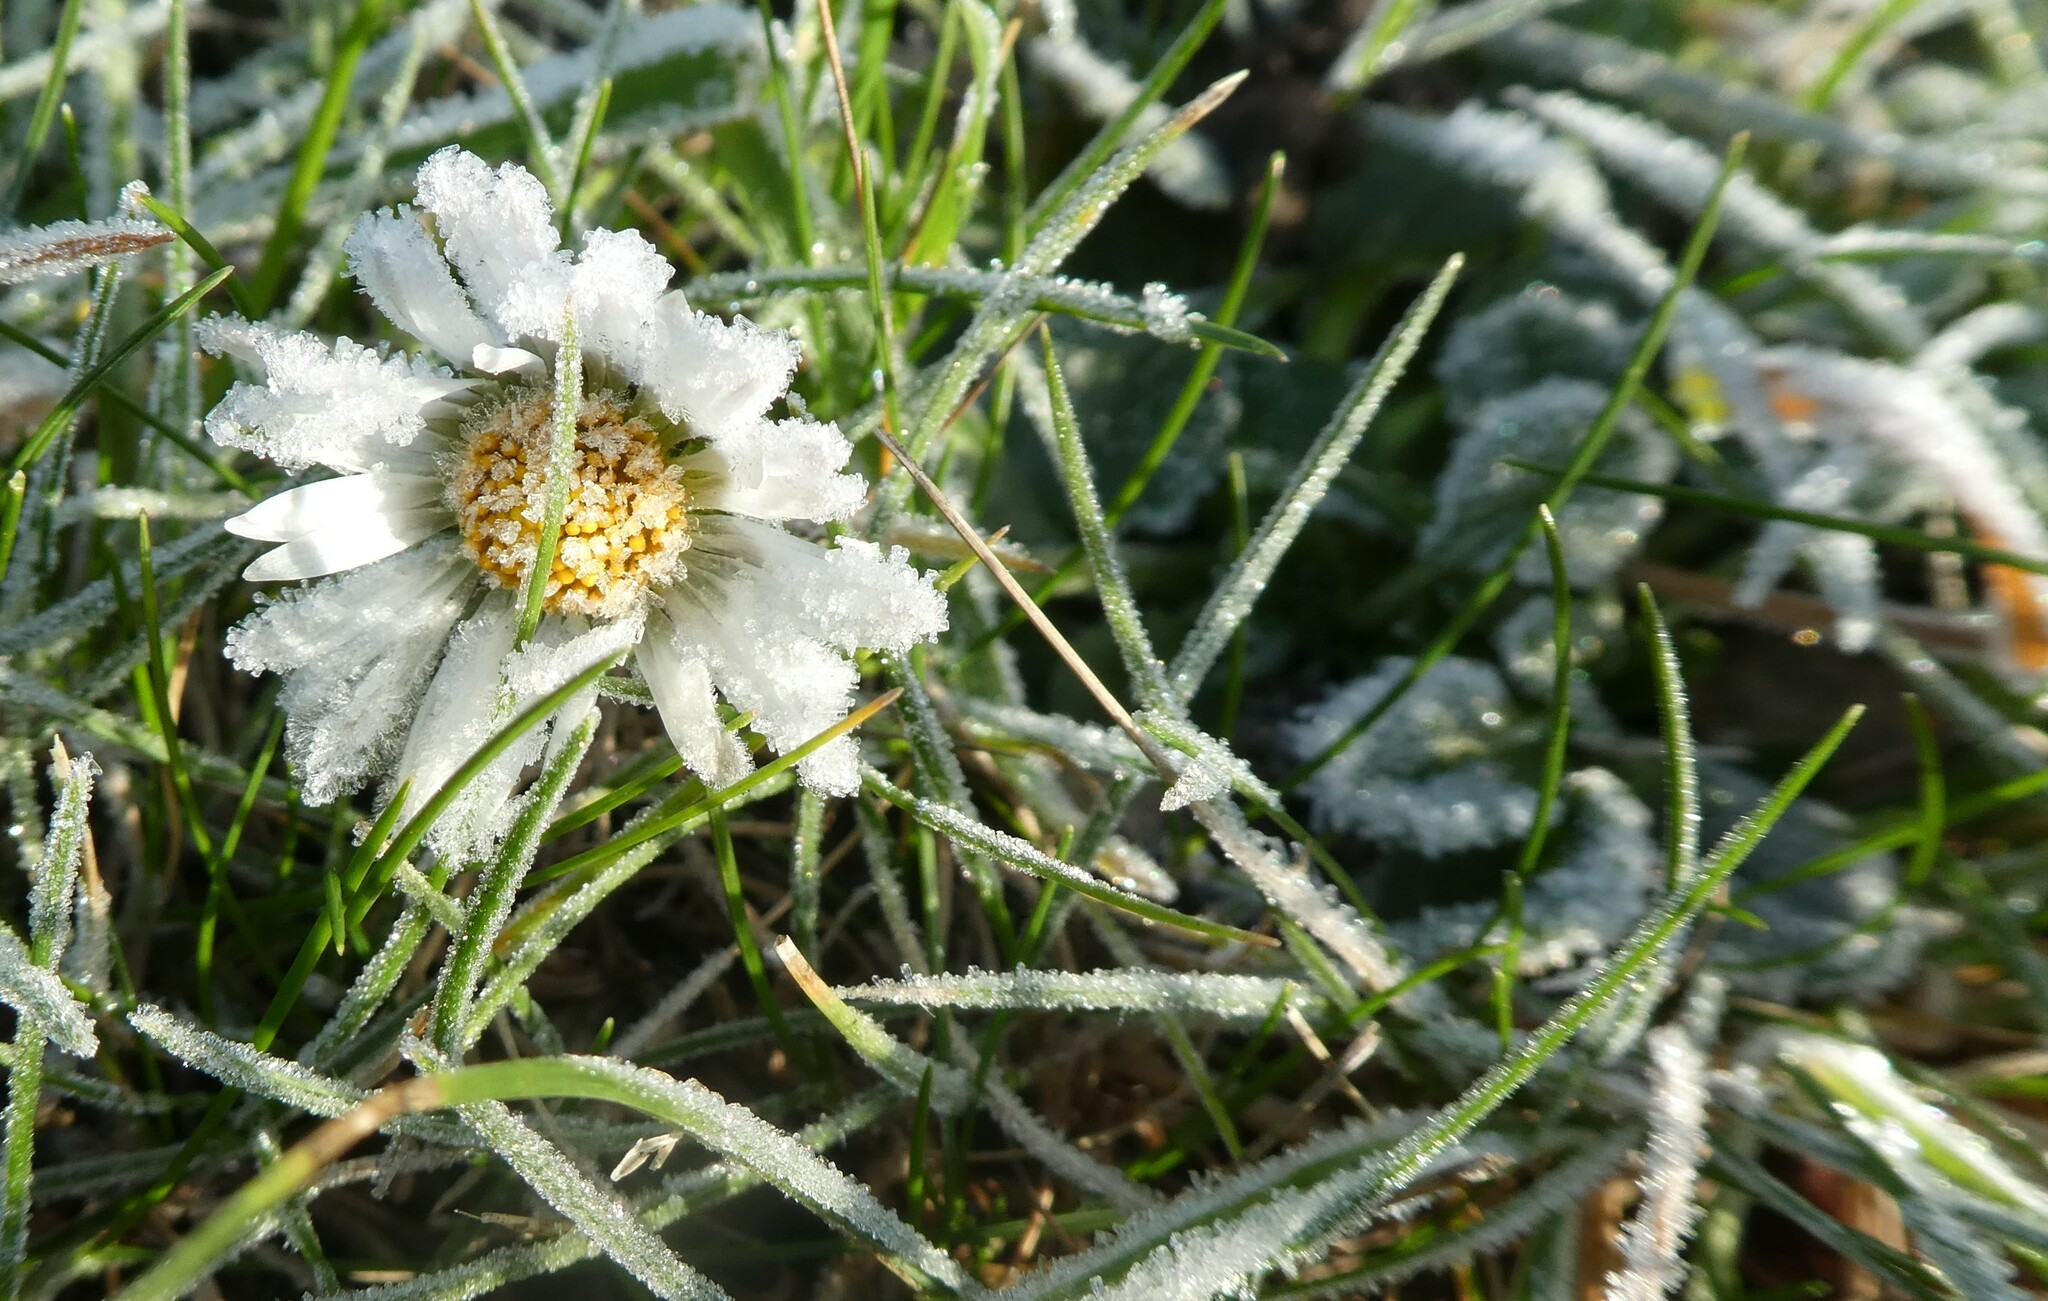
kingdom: Plantae
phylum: Tracheophyta
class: Magnoliopsida
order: Asterales
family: Asteraceae
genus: Bellis
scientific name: Bellis perennis
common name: Lawndaisy
